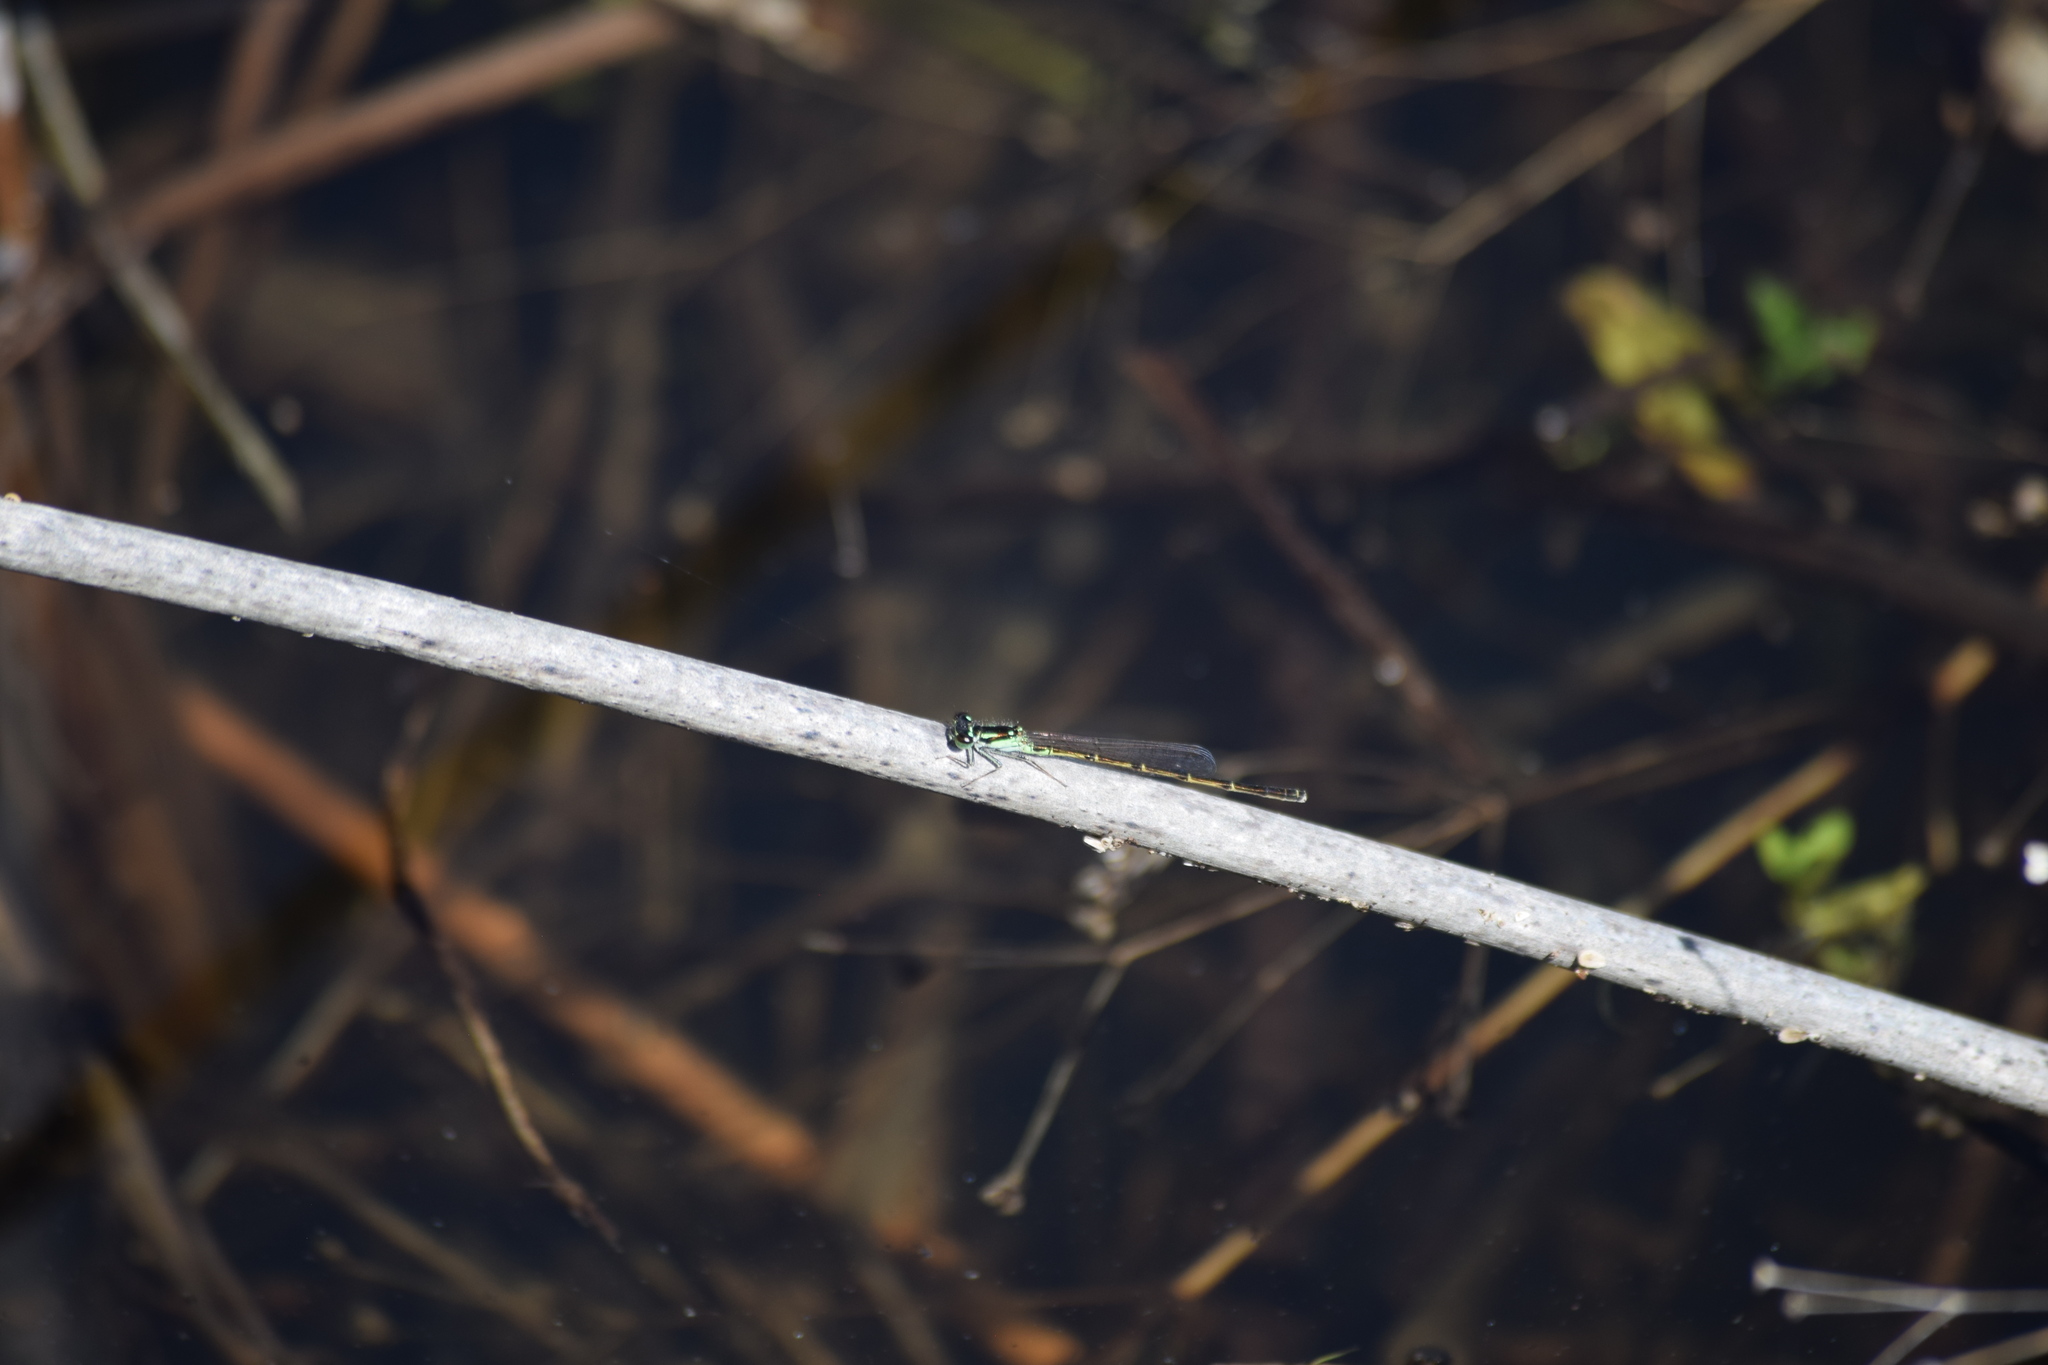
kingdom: Animalia
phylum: Arthropoda
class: Insecta
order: Odonata
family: Coenagrionidae
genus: Ischnura
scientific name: Ischnura posita
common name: Fragile forktail
